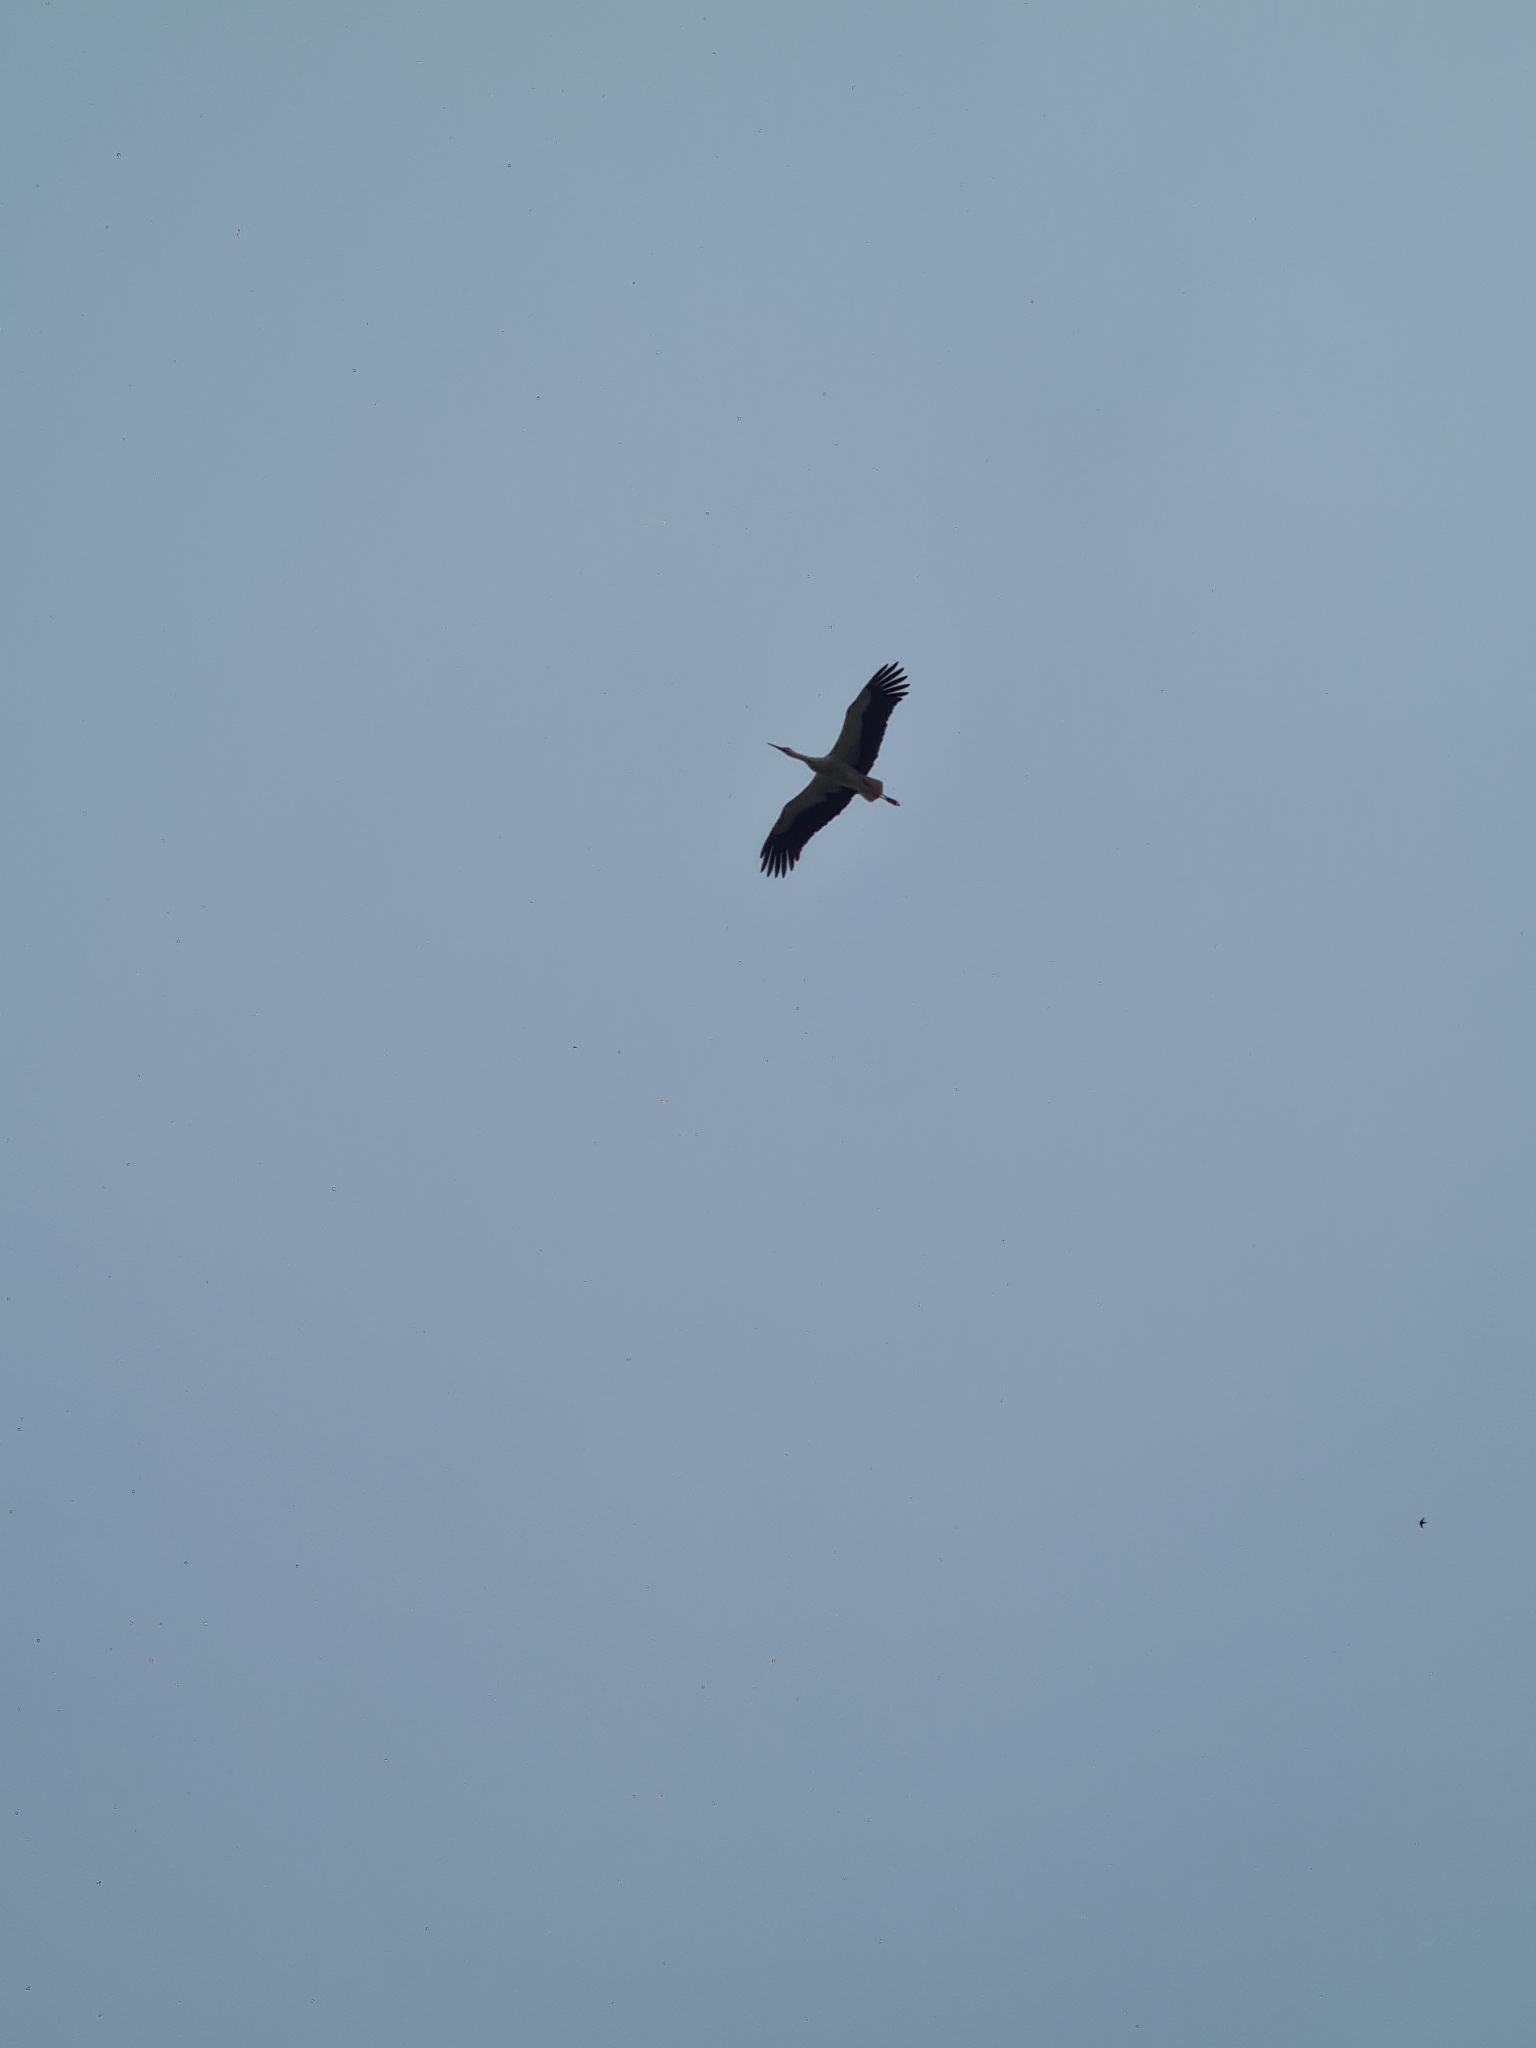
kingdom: Animalia
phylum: Chordata
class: Aves
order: Ciconiiformes
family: Ciconiidae
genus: Ciconia
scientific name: Ciconia ciconia
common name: White stork
